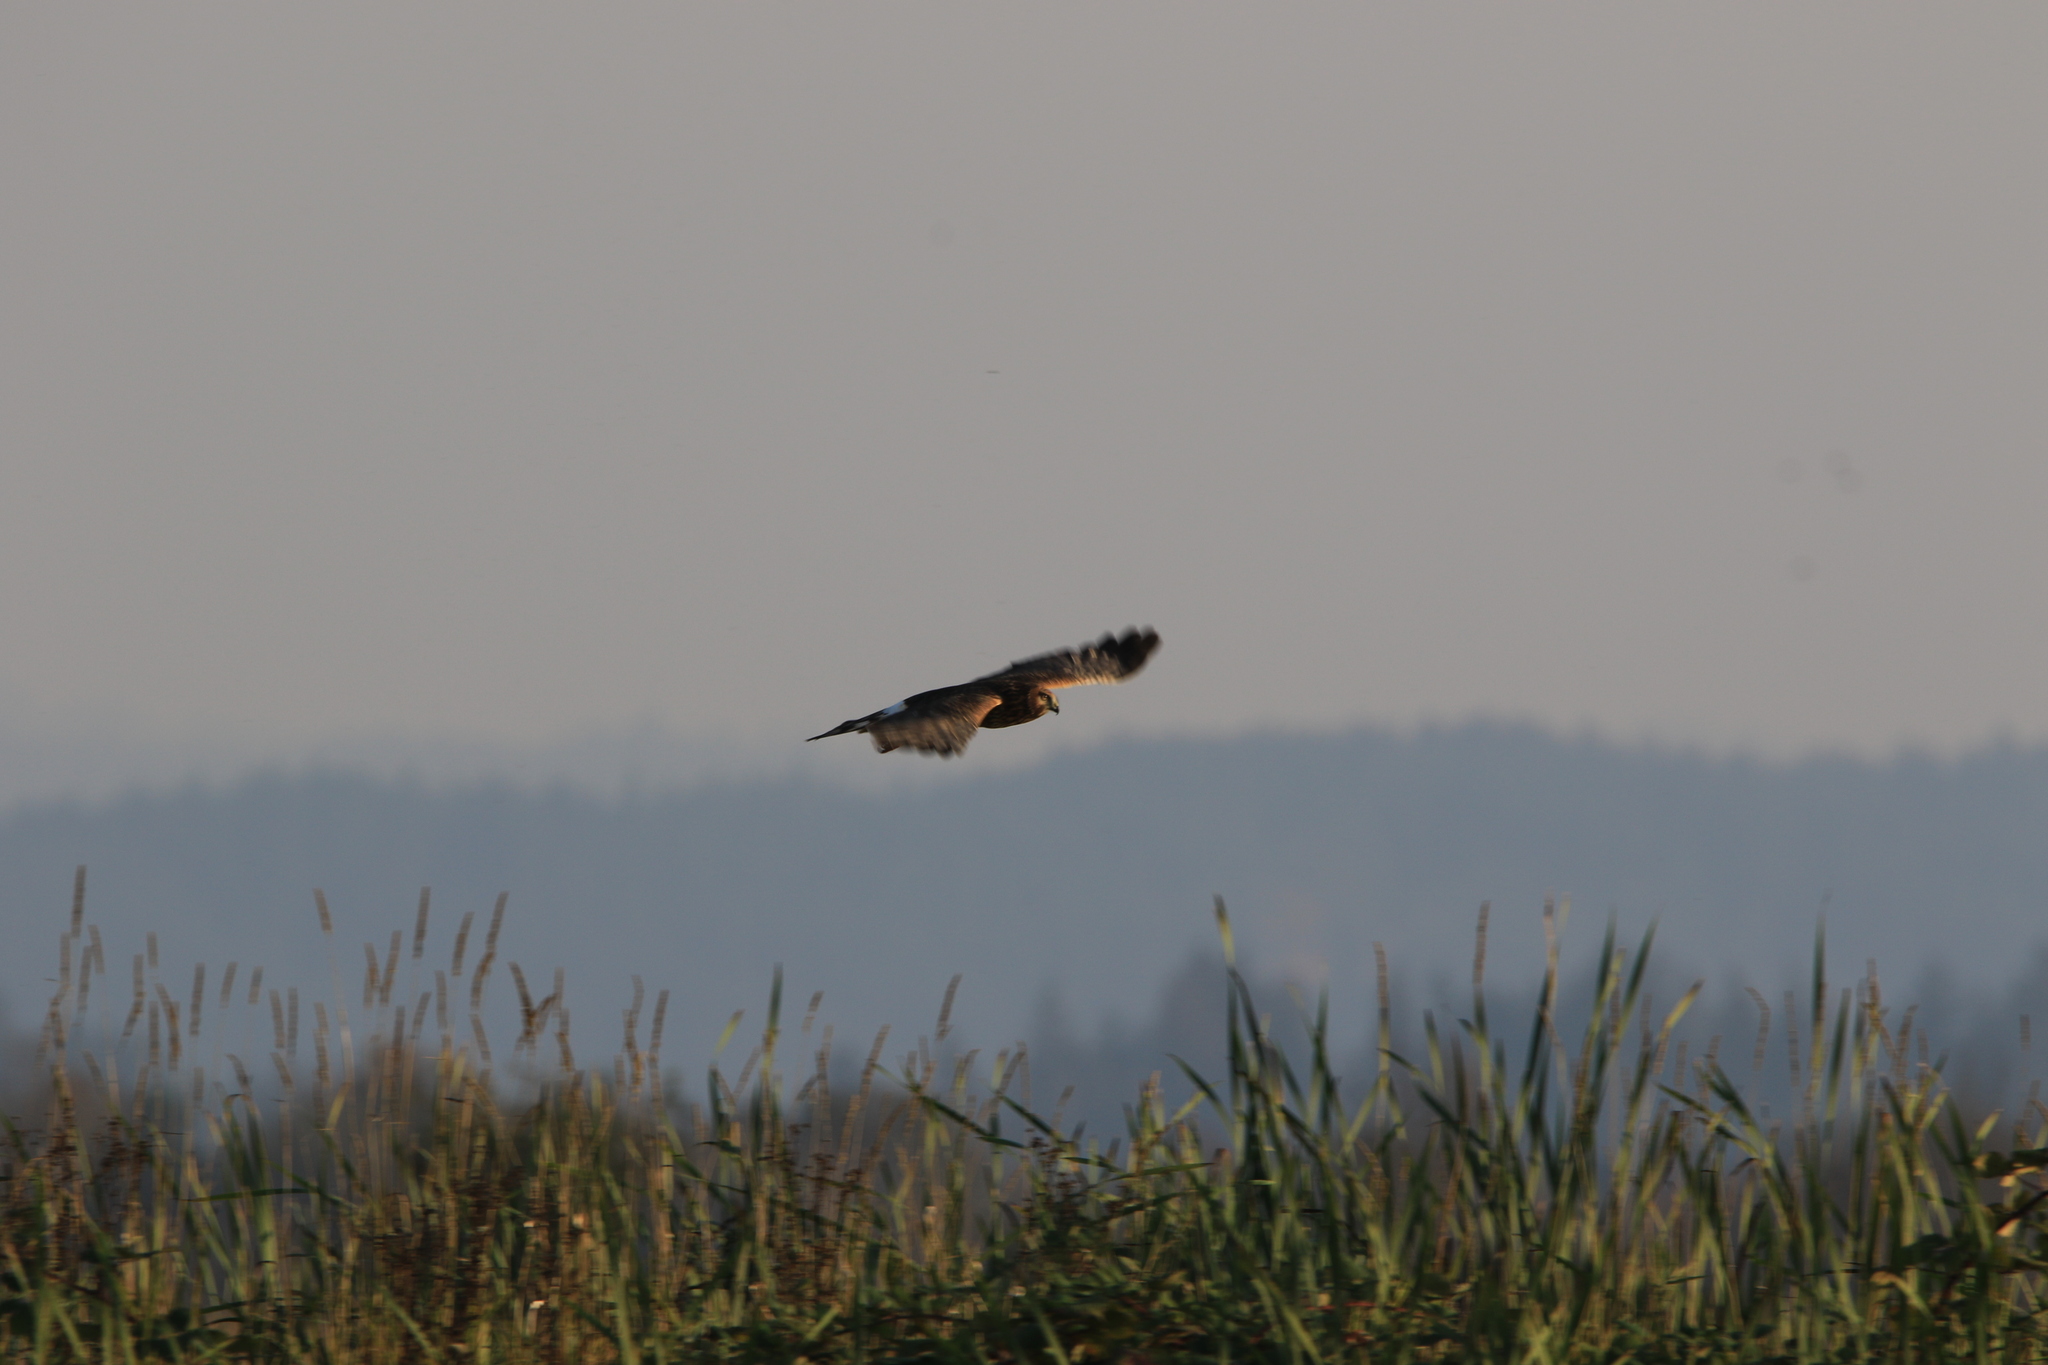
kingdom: Animalia
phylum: Chordata
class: Aves
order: Accipitriformes
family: Accipitridae
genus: Circus
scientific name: Circus cyaneus
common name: Hen harrier
